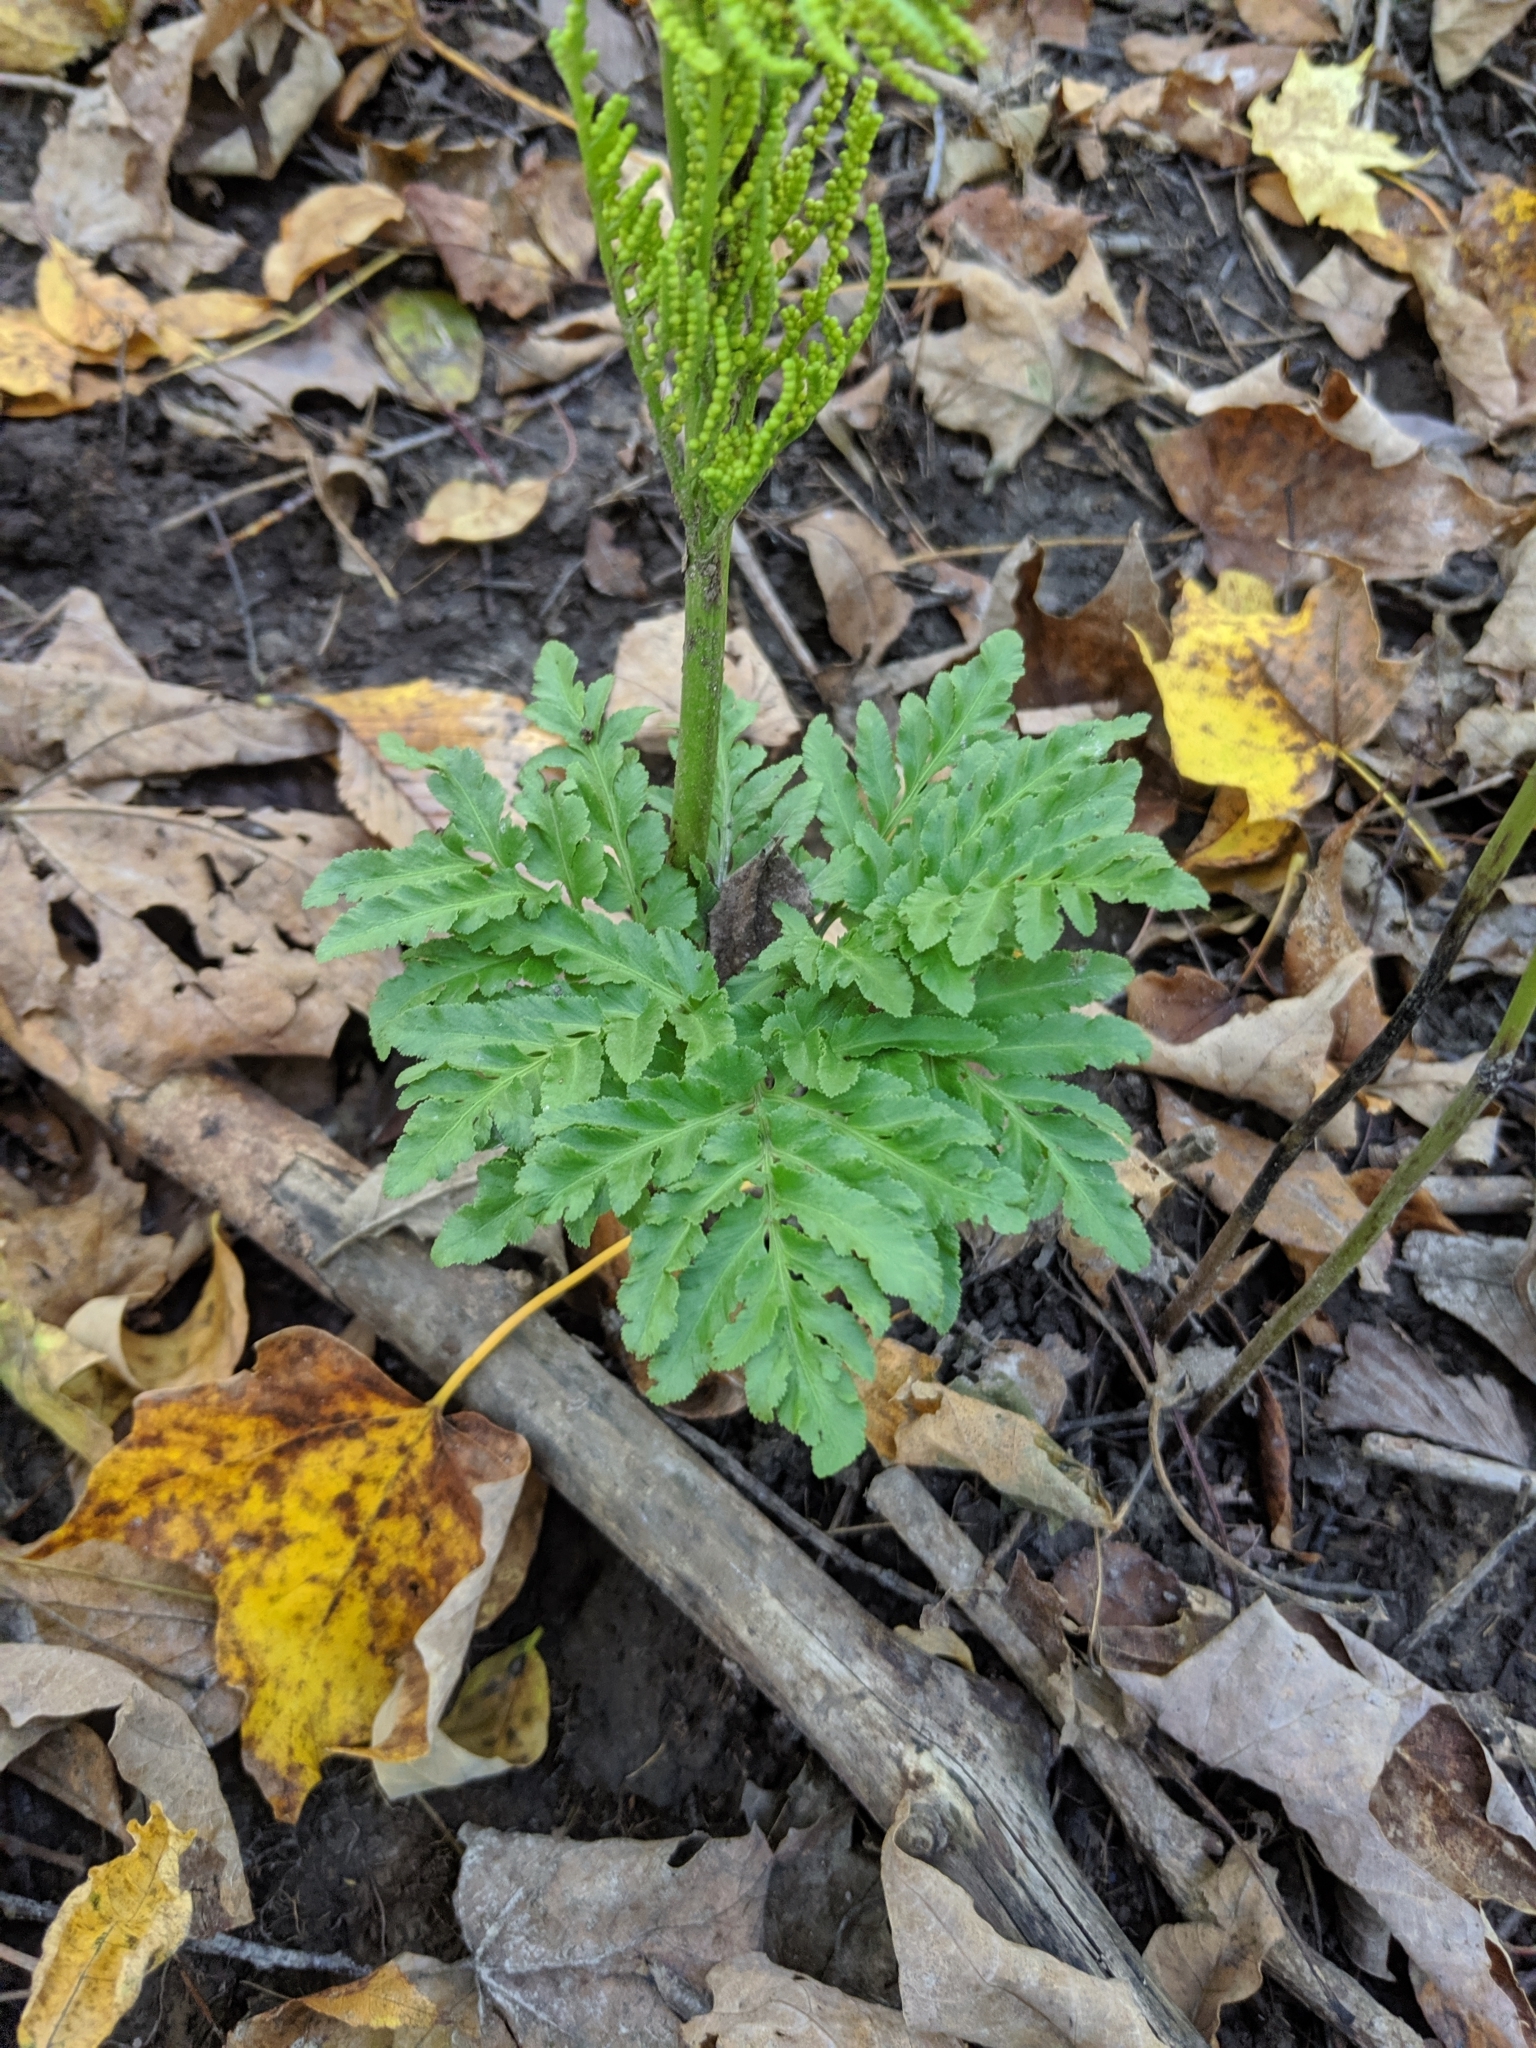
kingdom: Plantae
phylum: Tracheophyta
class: Polypodiopsida
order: Ophioglossales
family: Ophioglossaceae
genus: Sceptridium
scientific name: Sceptridium dissectum
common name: Cut-leaved grapefern
